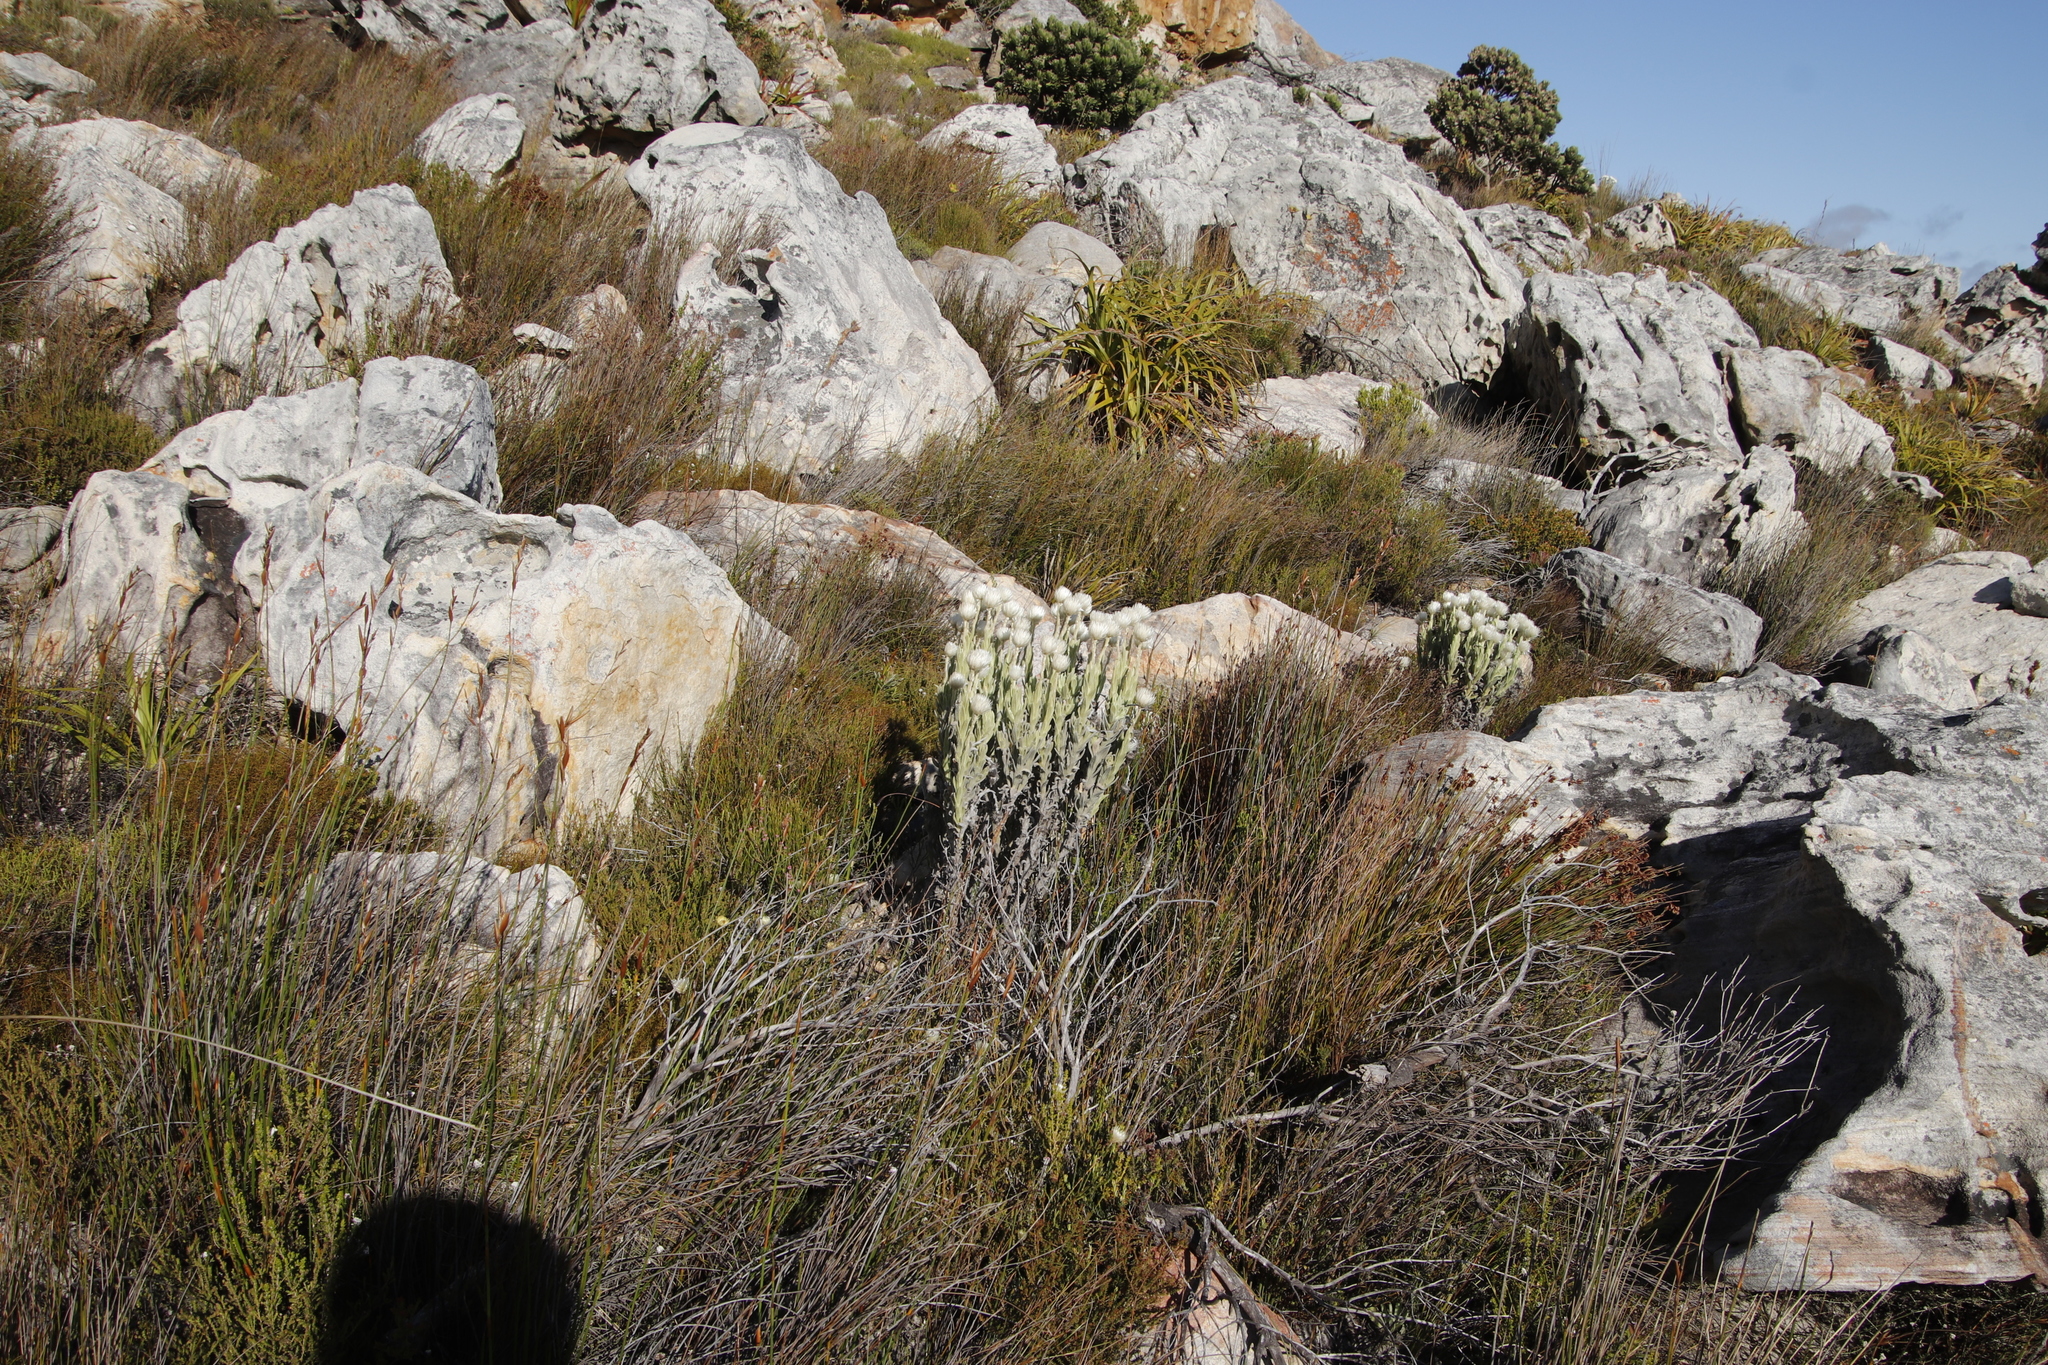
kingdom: Plantae
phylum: Tracheophyta
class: Magnoliopsida
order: Asterales
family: Asteraceae
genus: Syncarpha
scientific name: Syncarpha vestita
